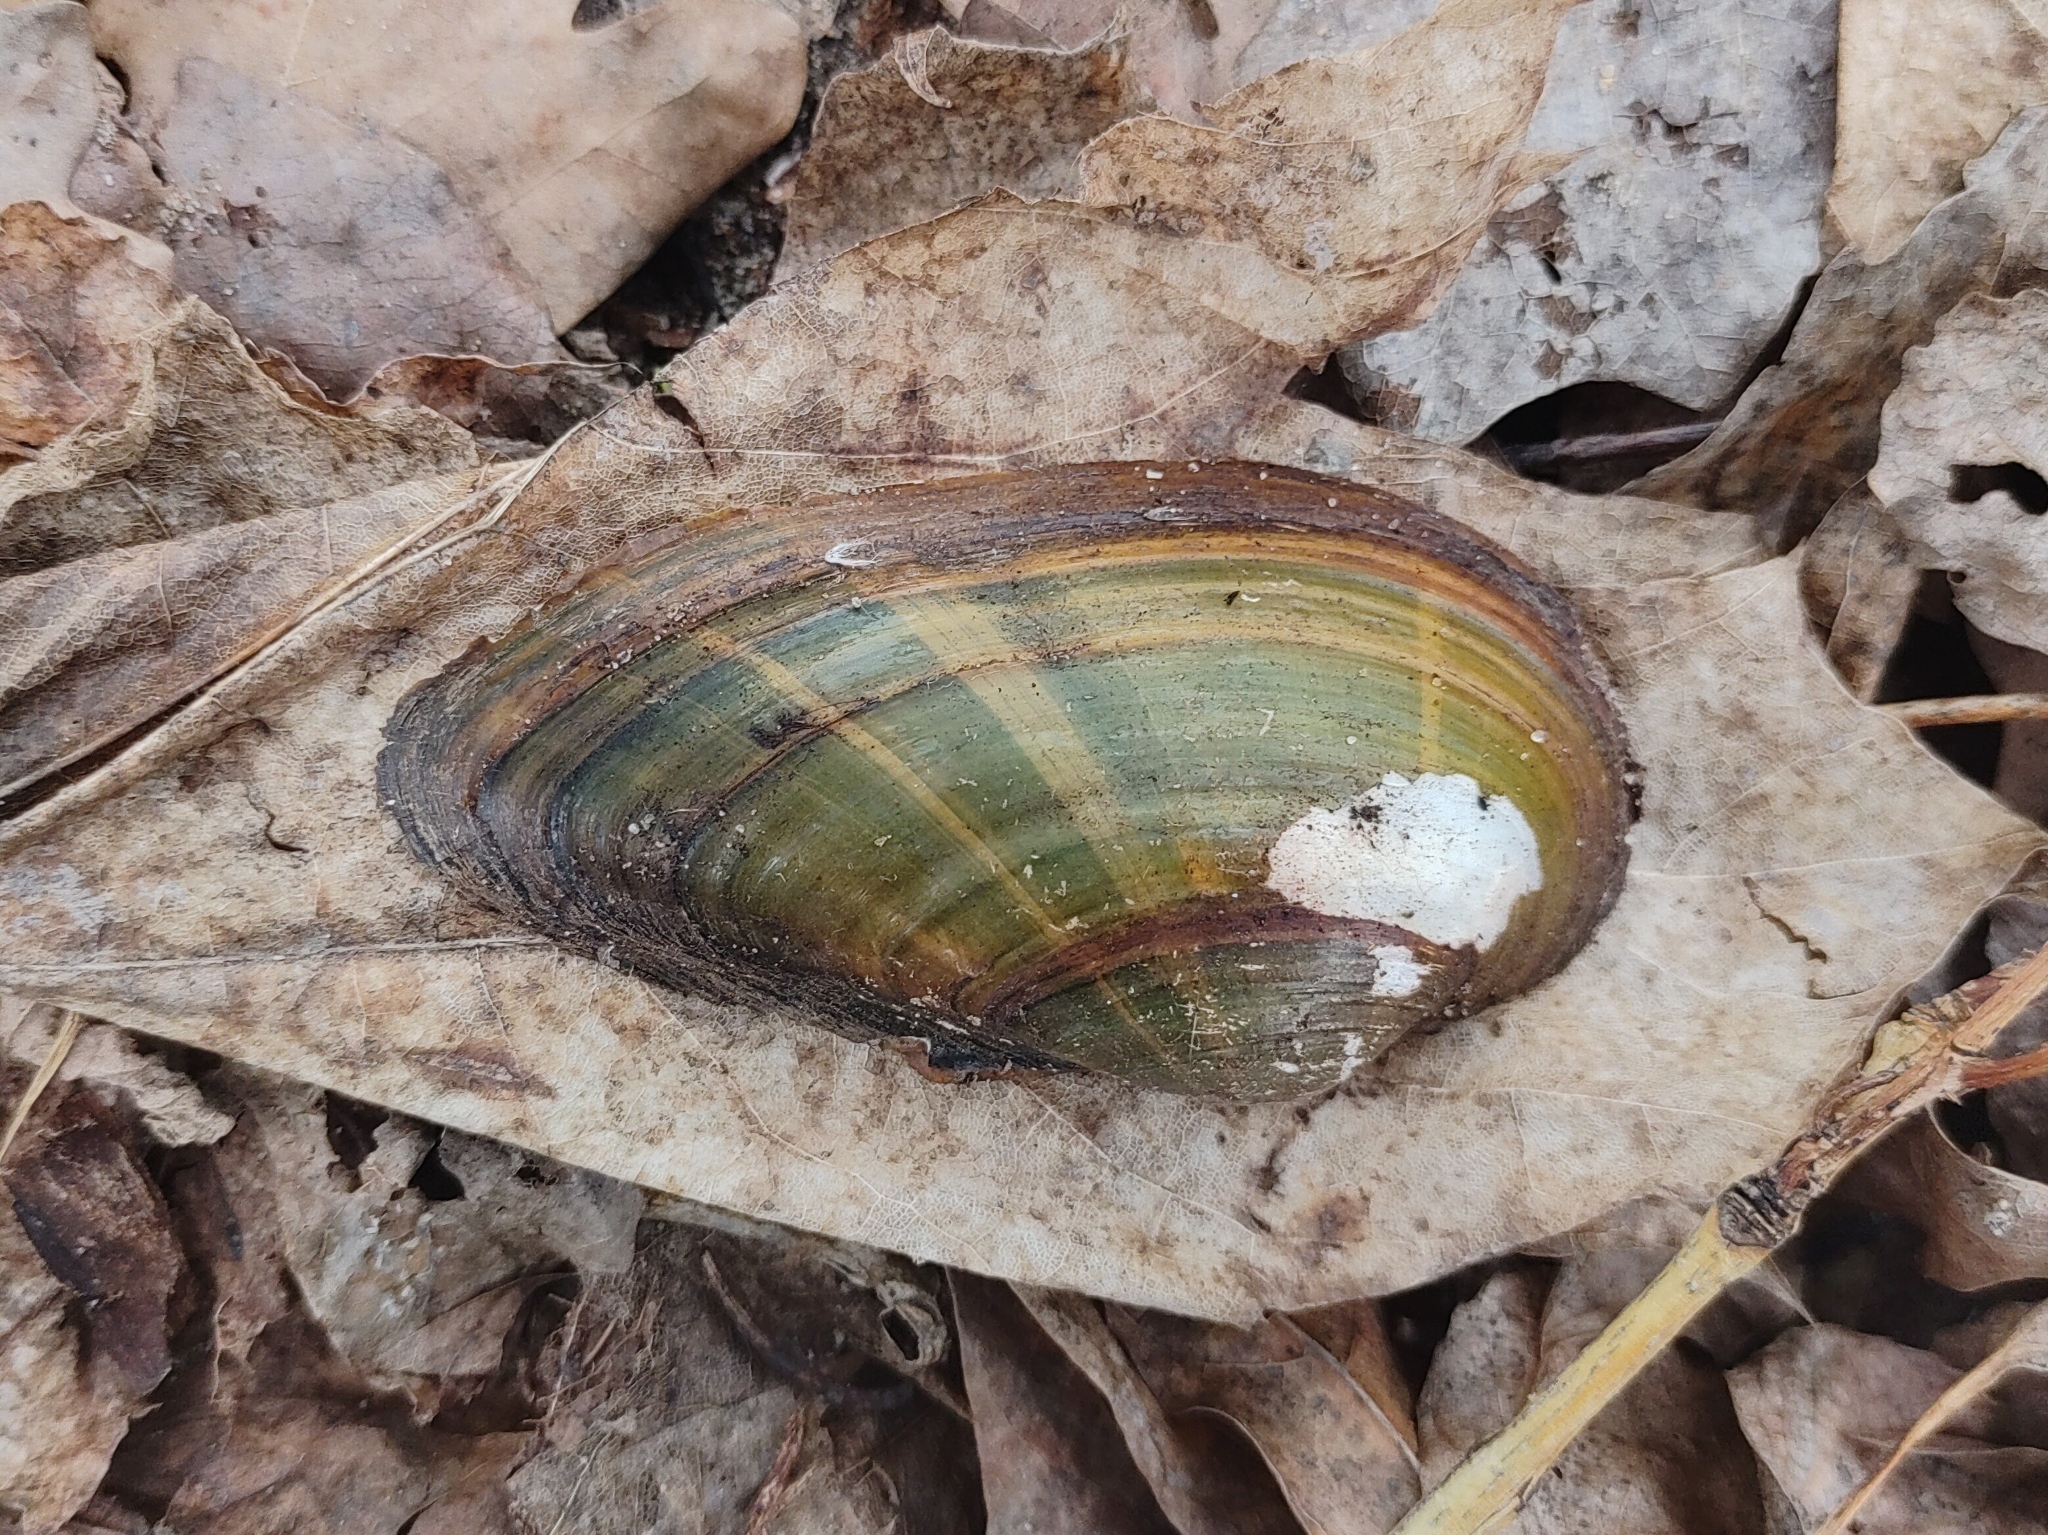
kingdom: Animalia
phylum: Mollusca
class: Bivalvia
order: Unionida
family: Unionidae
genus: Unio
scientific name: Unio tumidus
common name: Swollen river mussel
